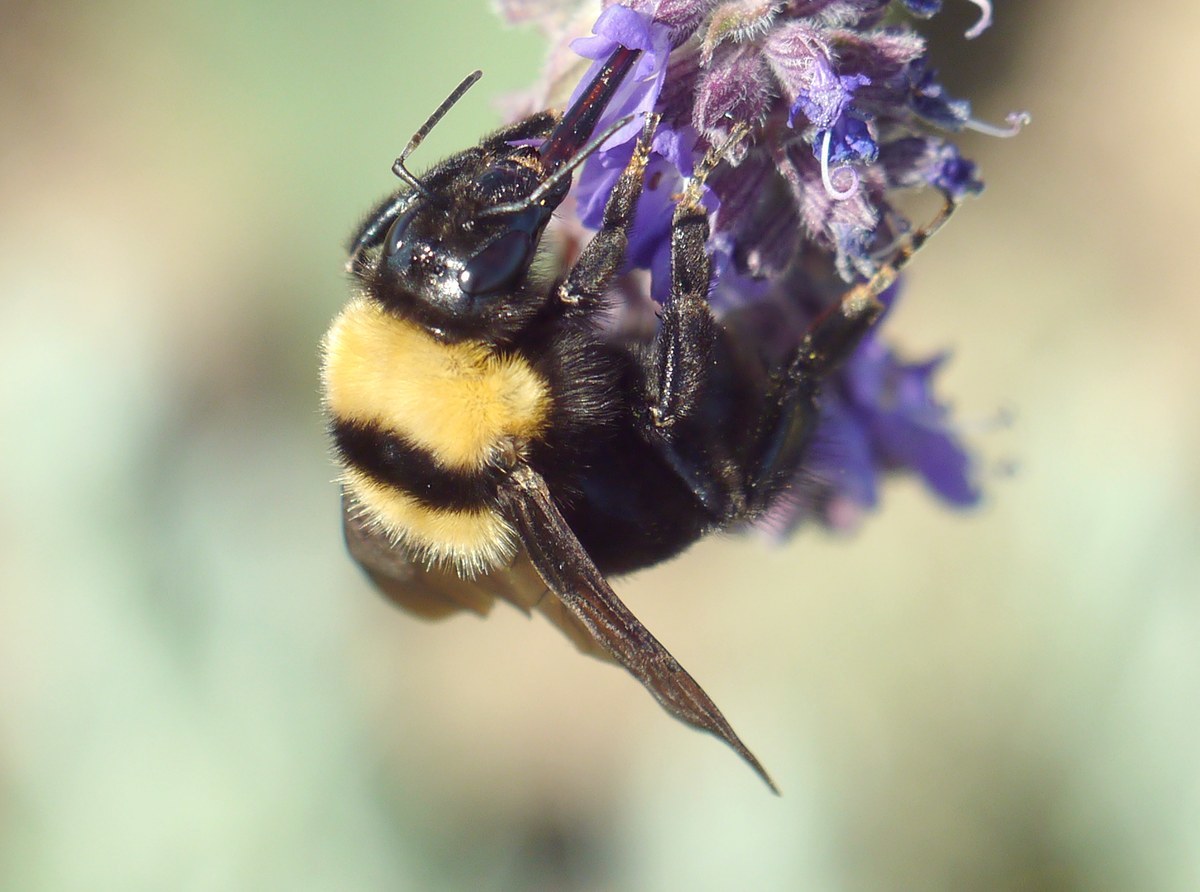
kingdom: Animalia
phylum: Arthropoda
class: Insecta
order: Hymenoptera
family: Apidae
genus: Bombus
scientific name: Bombus argillaceus
